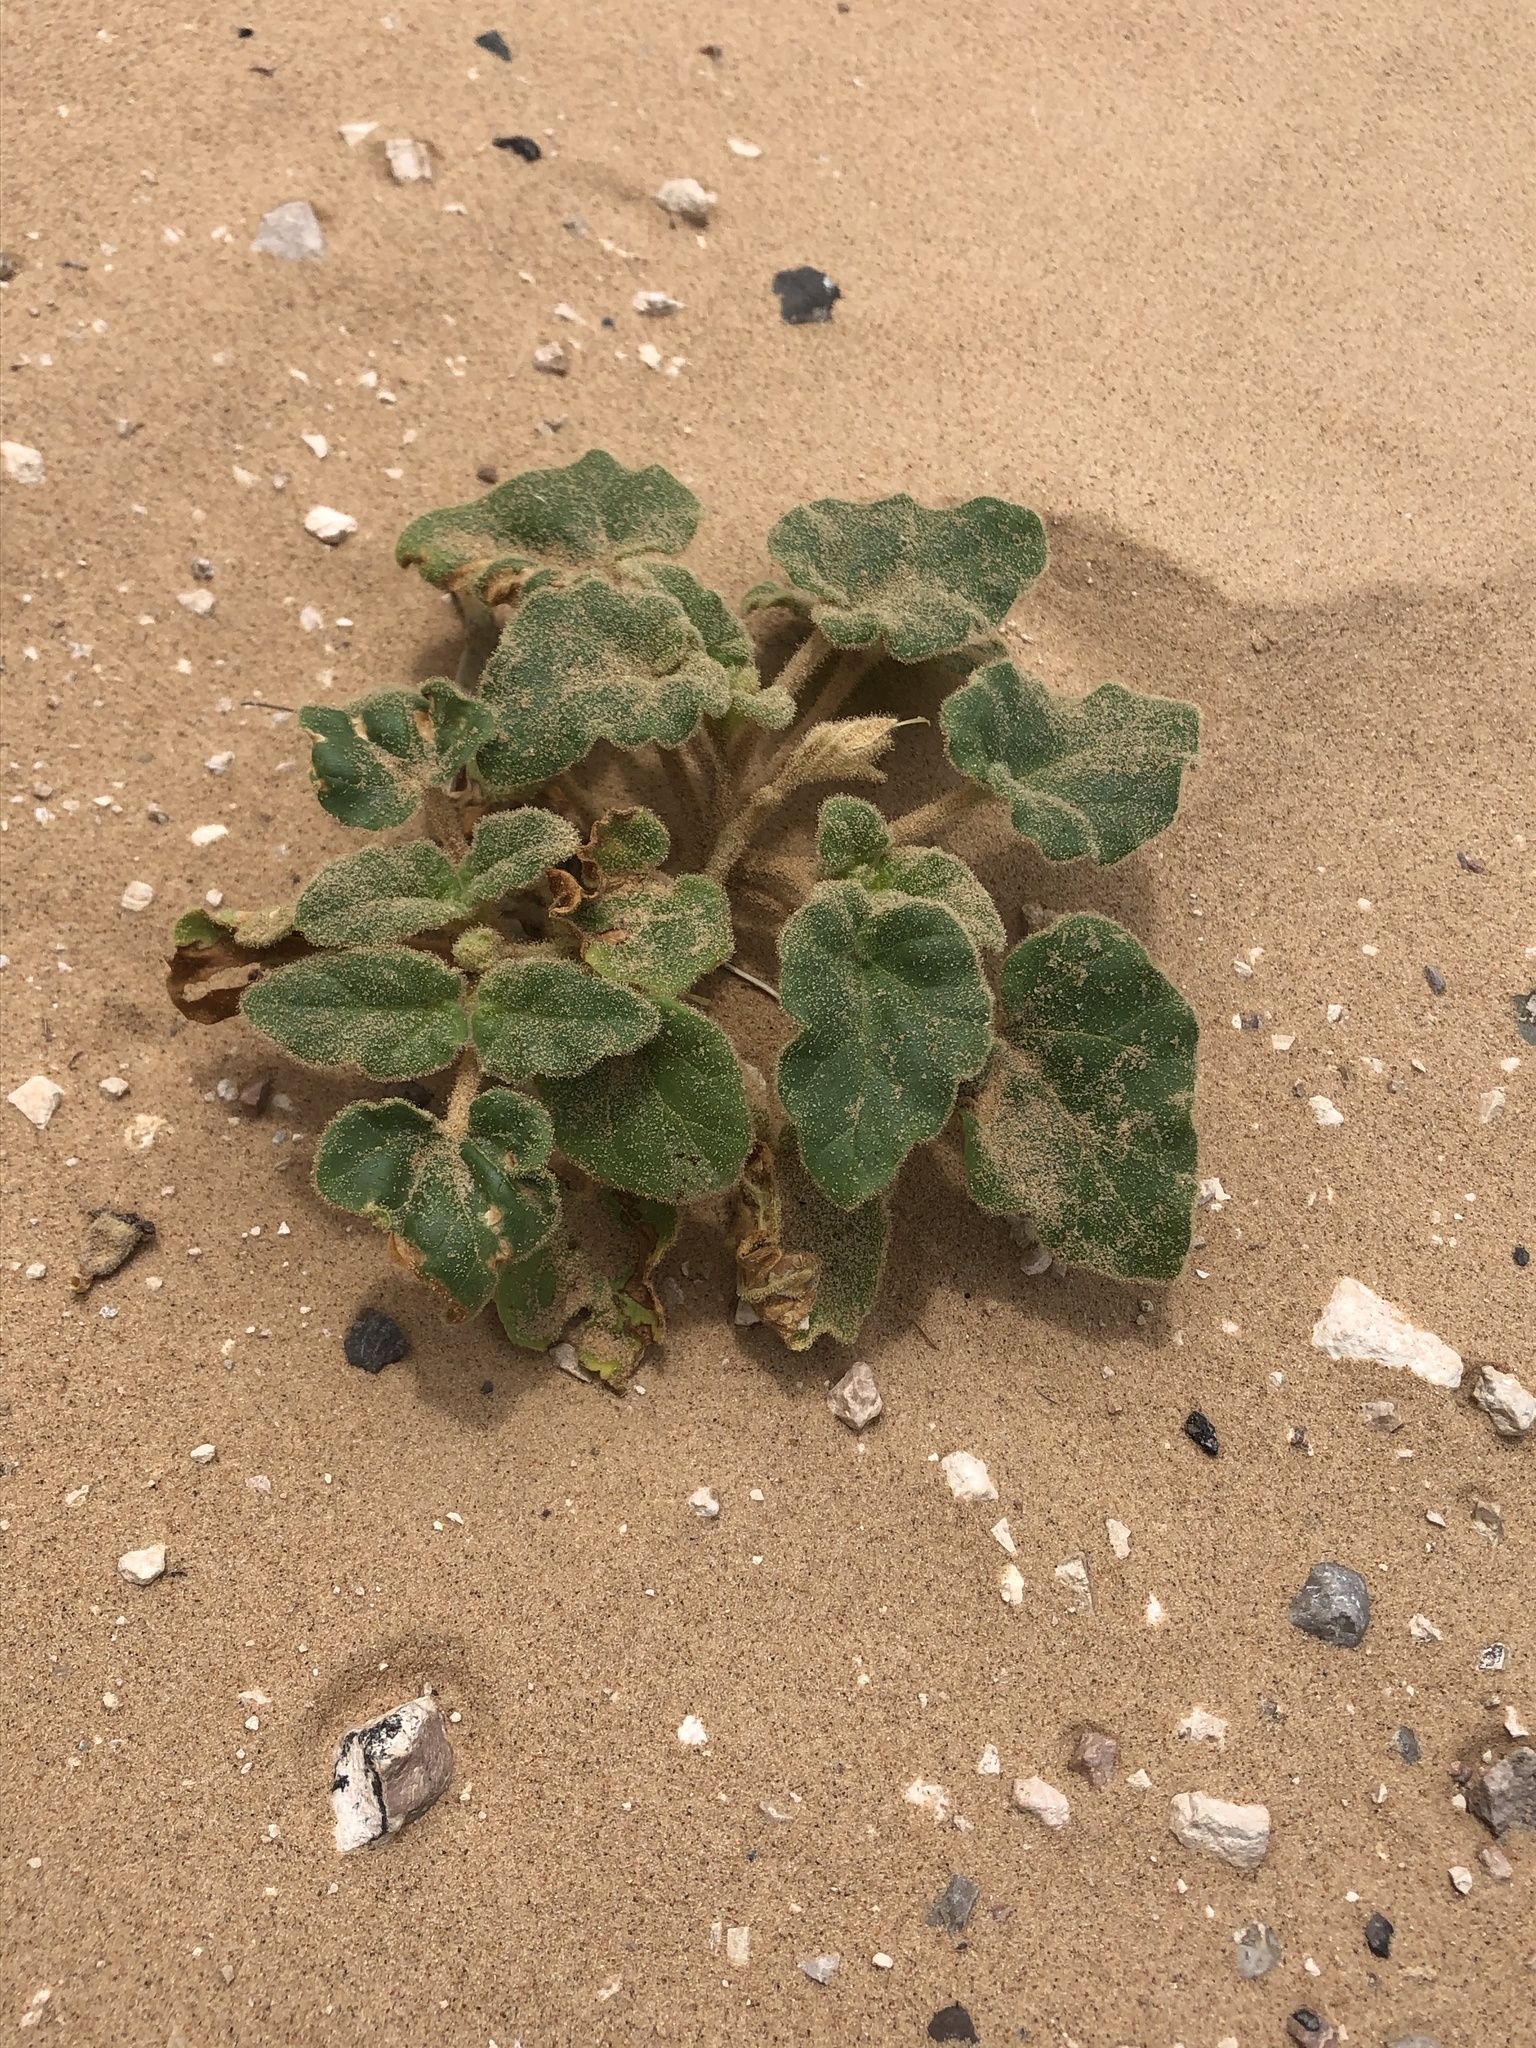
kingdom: Plantae
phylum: Tracheophyta
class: Magnoliopsida
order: Lamiales
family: Martyniaceae
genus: Proboscidea
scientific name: Proboscidea sabulosa
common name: Sand-dune devil's claw
